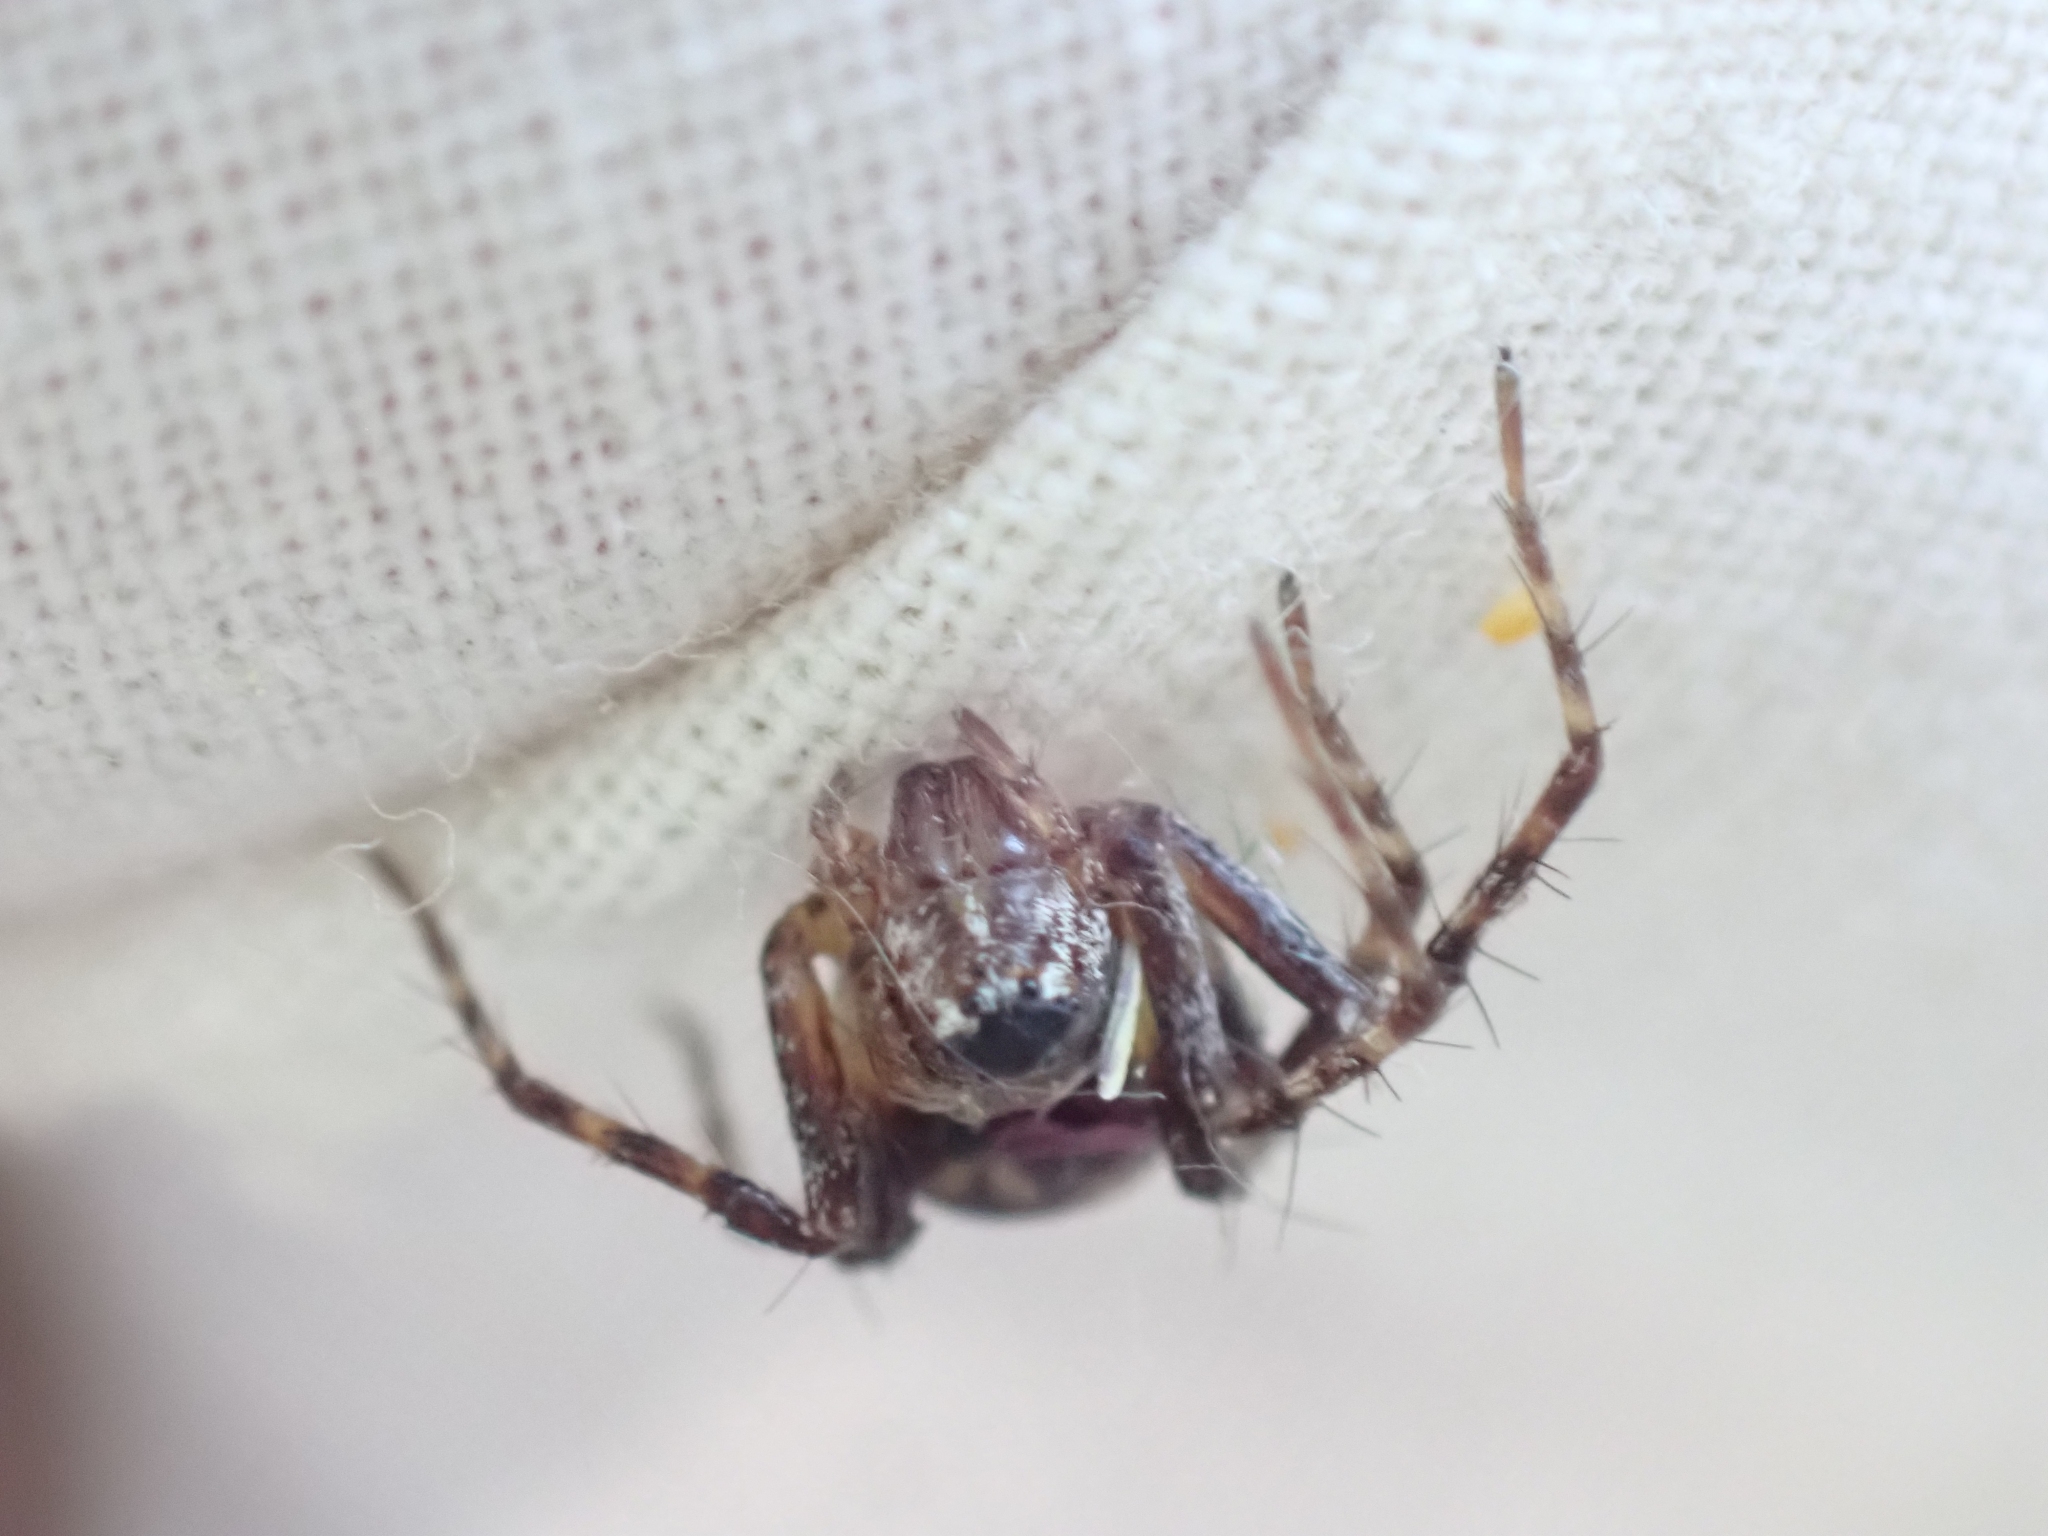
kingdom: Animalia
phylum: Arthropoda
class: Arachnida
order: Araneae
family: Oxyopidae
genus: Oxyopes
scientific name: Oxyopes scalaris
